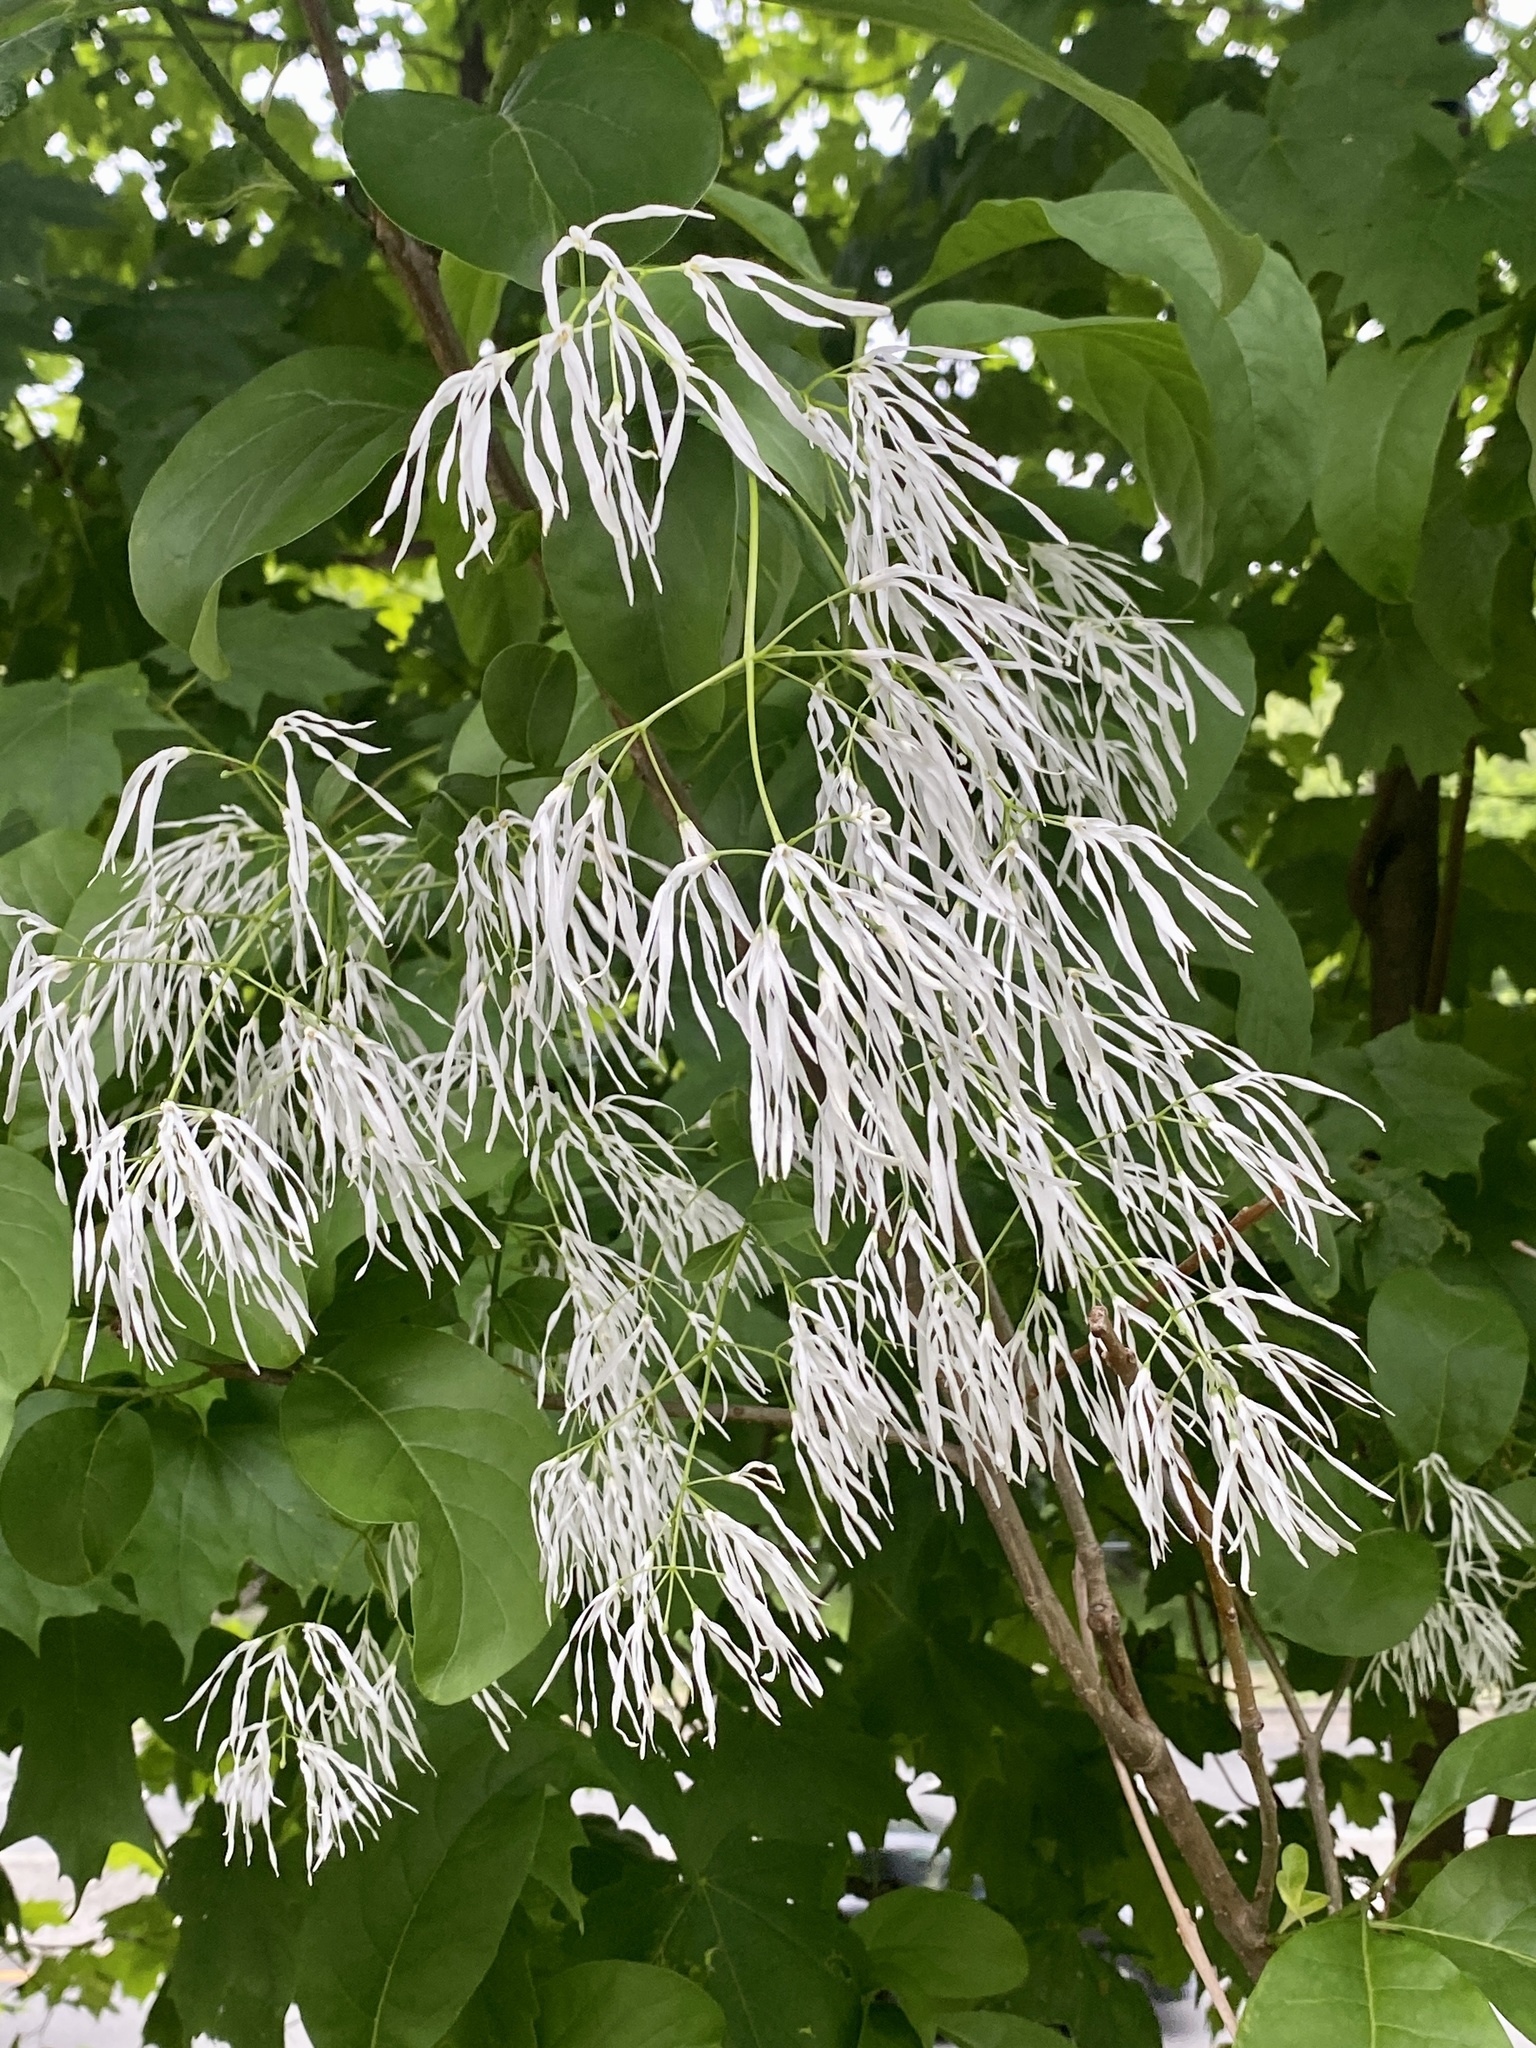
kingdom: Plantae
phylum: Tracheophyta
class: Magnoliopsida
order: Lamiales
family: Oleaceae
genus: Chionanthus
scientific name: Chionanthus virginicus
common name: American fringetree
